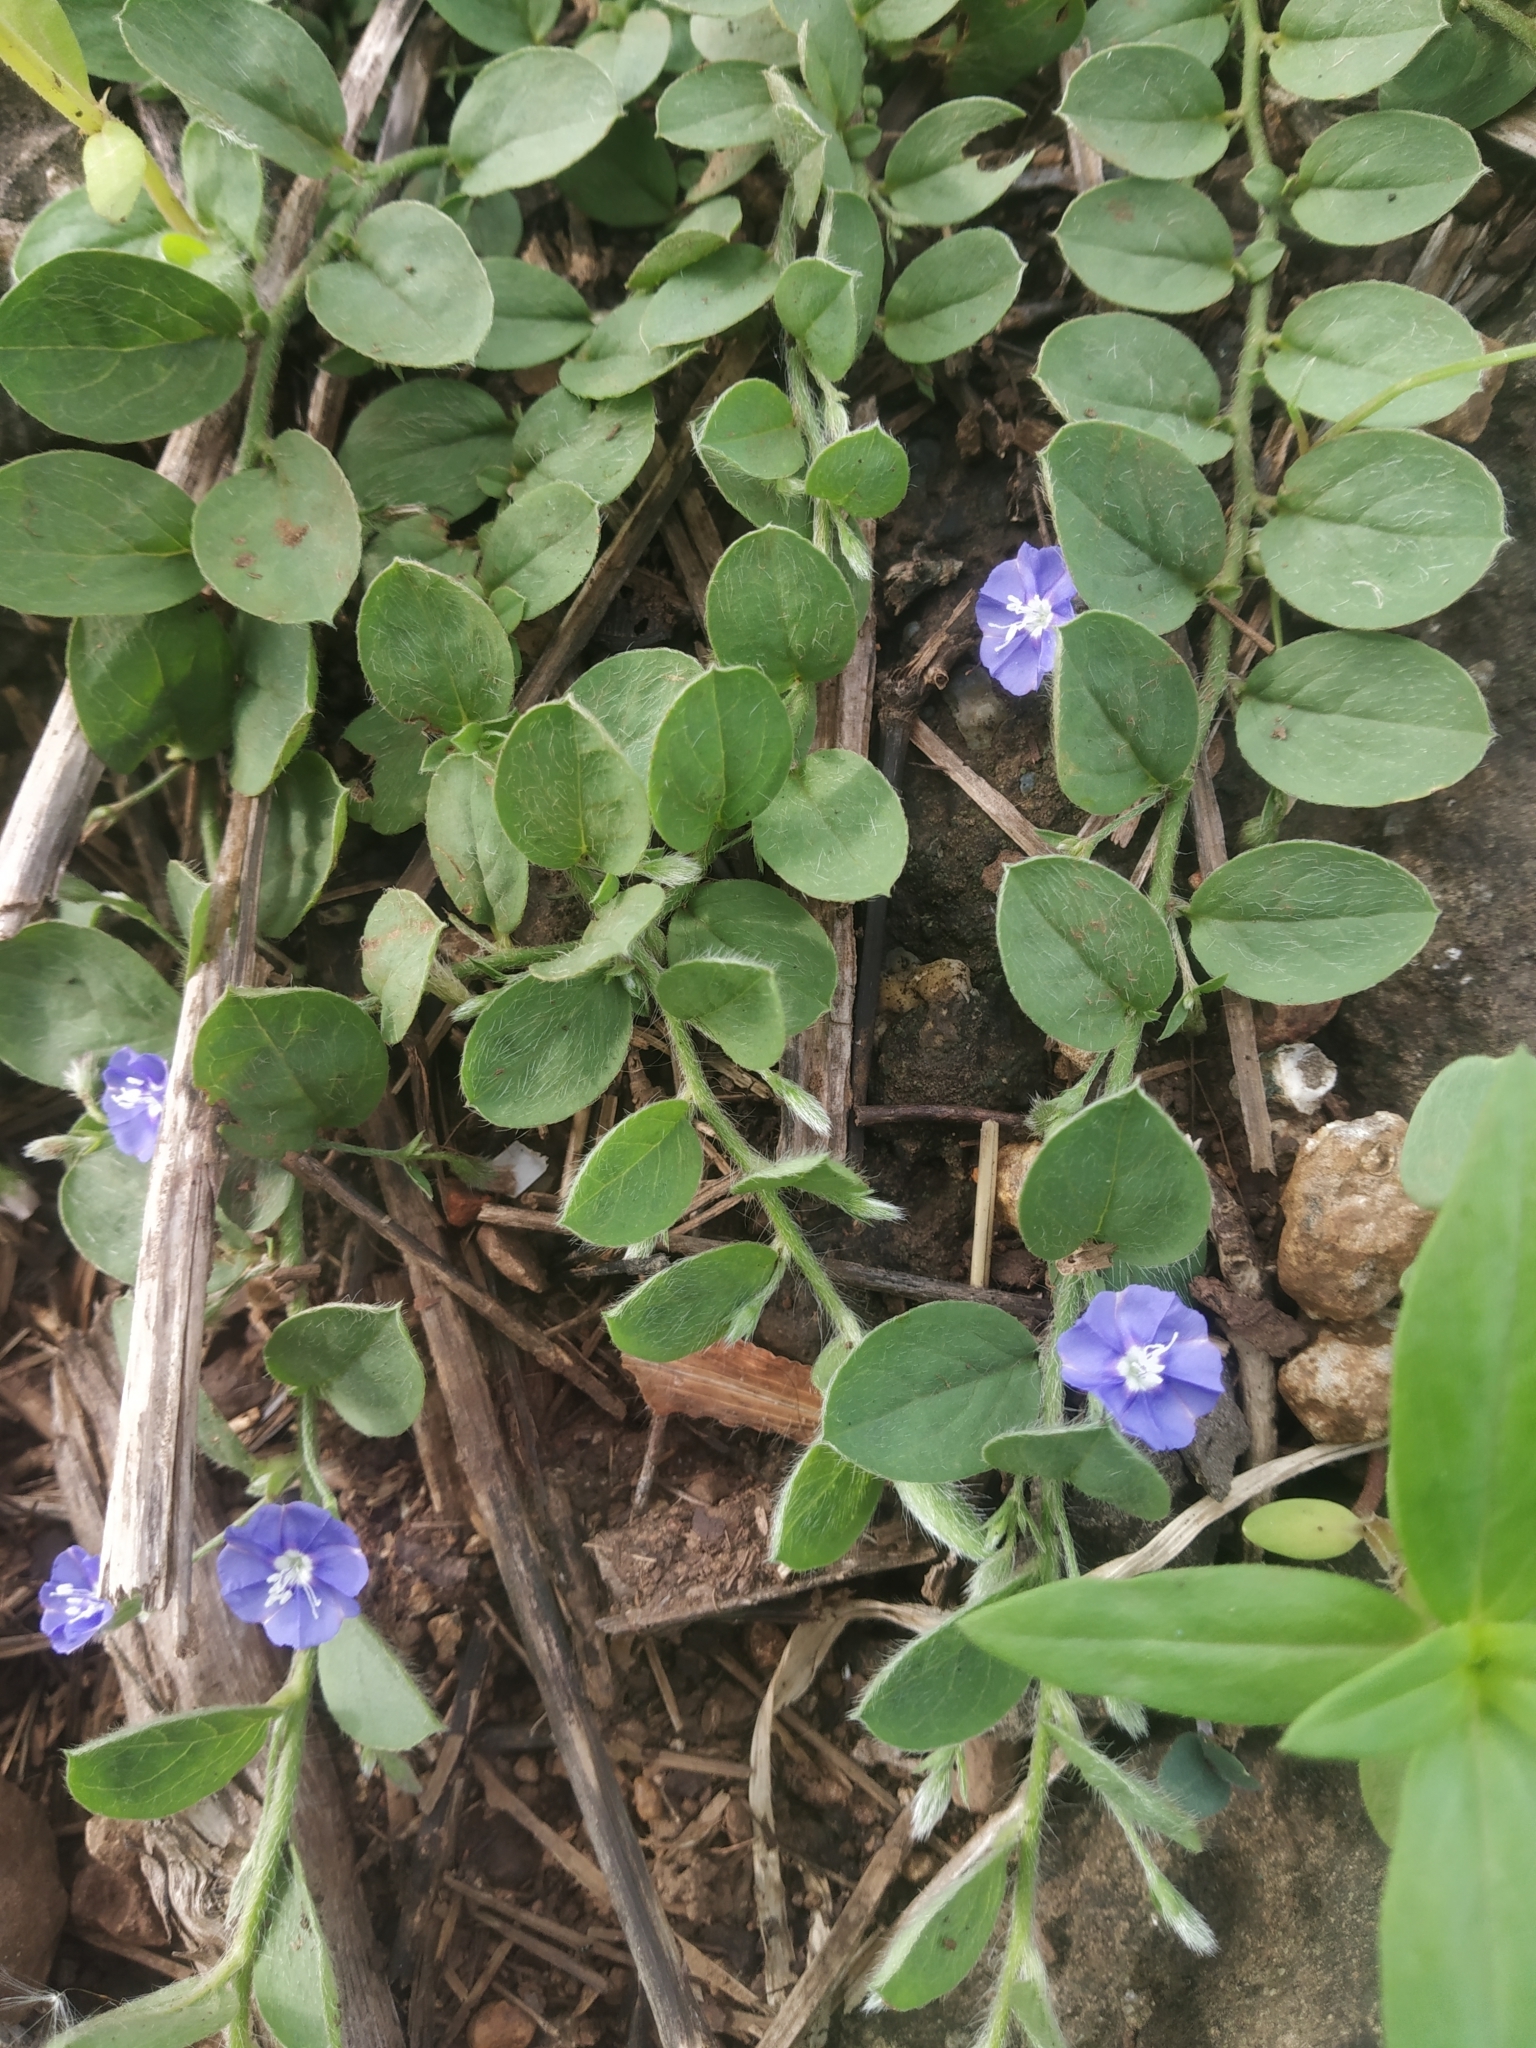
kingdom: Plantae
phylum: Tracheophyta
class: Magnoliopsida
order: Solanales
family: Convolvulaceae
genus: Evolvulus
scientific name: Evolvulus alsinoides
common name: Slender dwarf morning-glory
